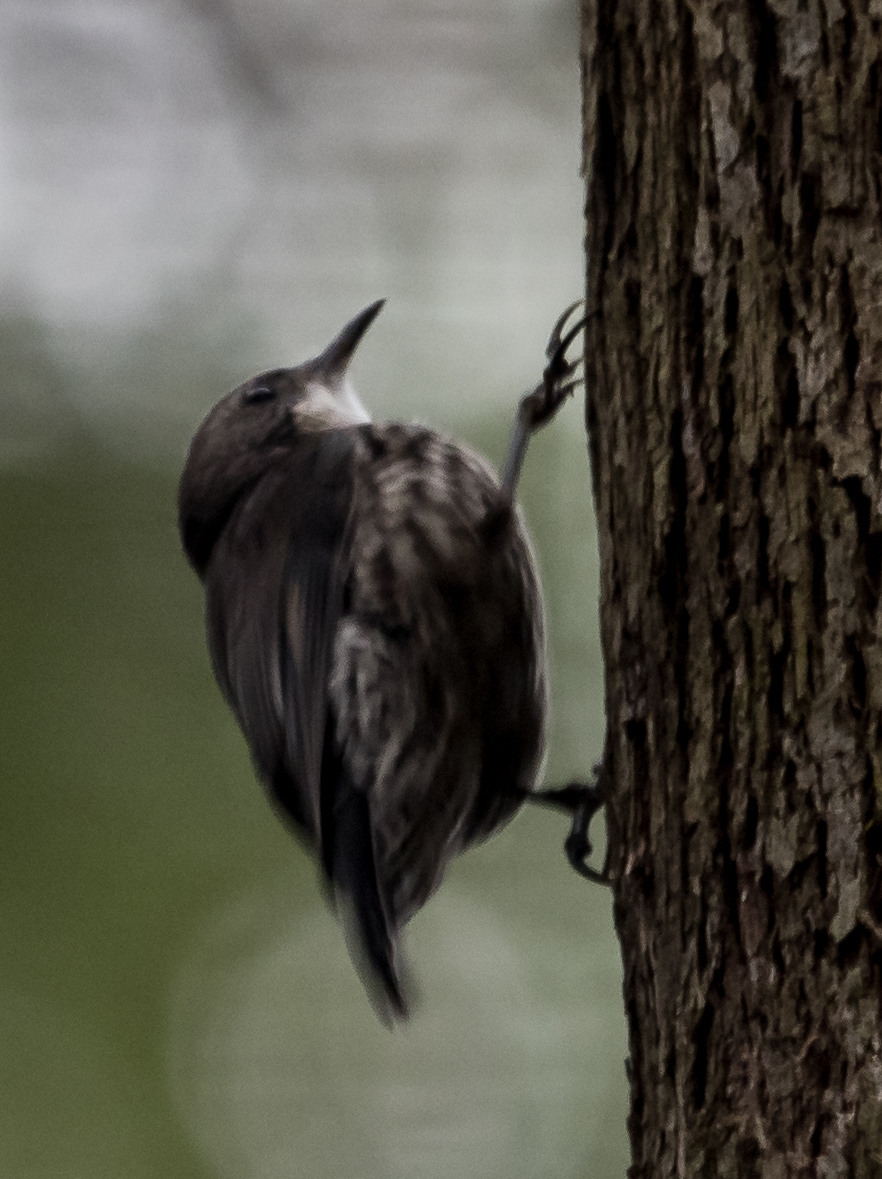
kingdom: Animalia
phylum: Chordata
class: Aves
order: Passeriformes
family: Climacteridae
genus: Cormobates
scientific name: Cormobates leucophaea
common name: White-throated treecreeper
